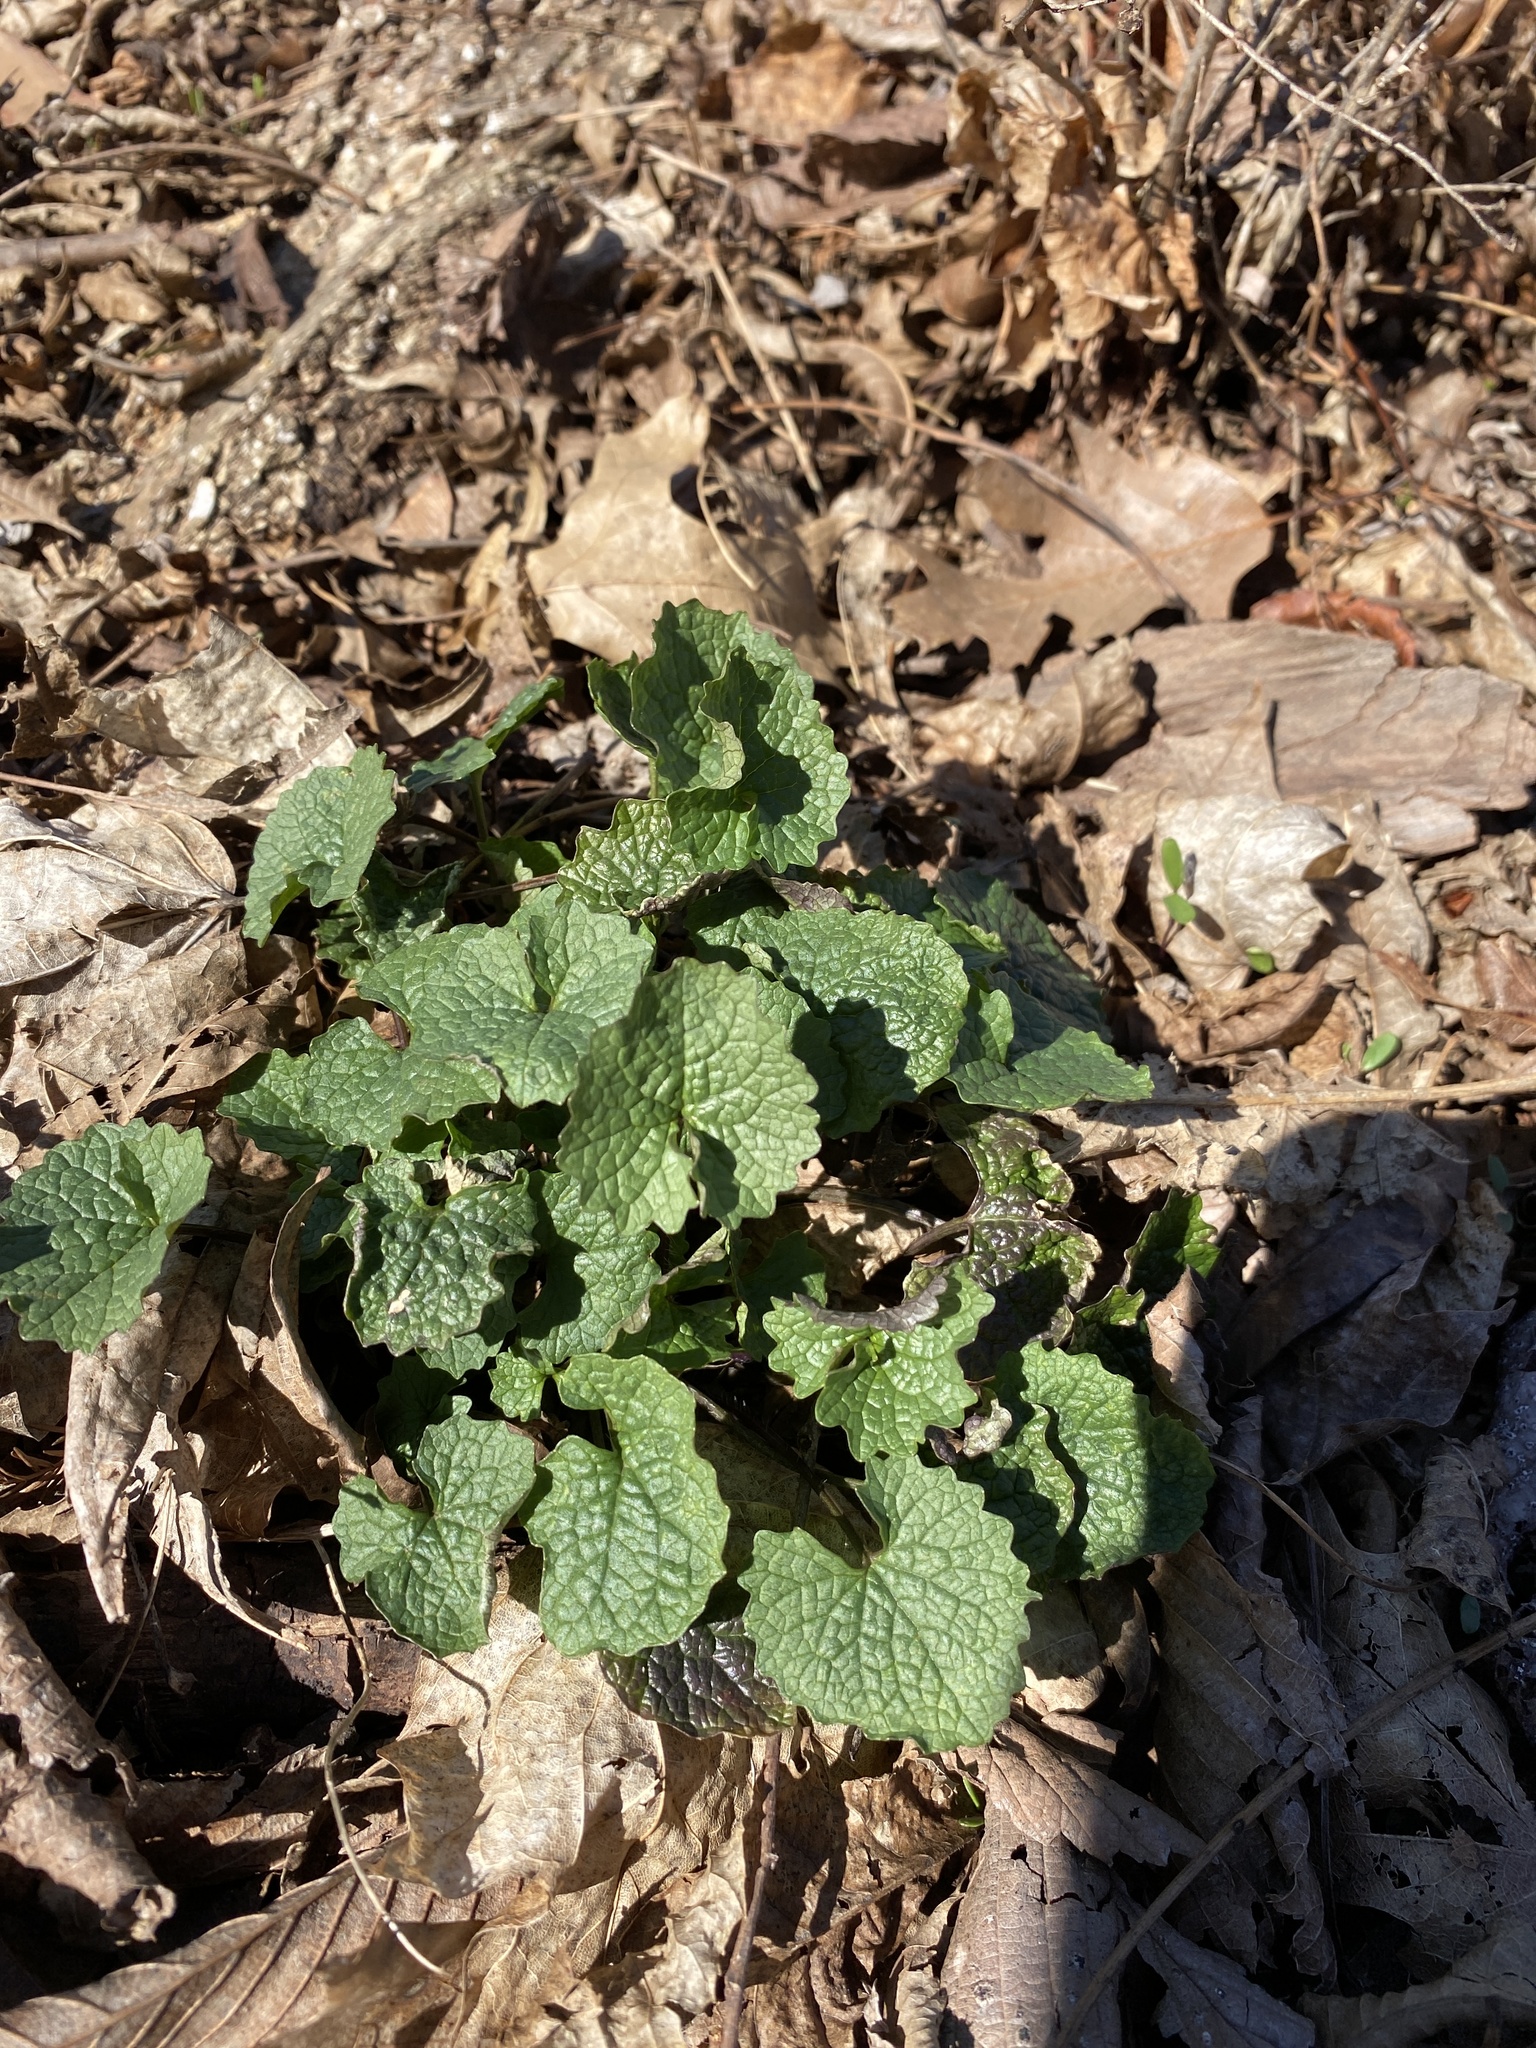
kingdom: Plantae
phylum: Tracheophyta
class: Magnoliopsida
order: Brassicales
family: Brassicaceae
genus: Alliaria
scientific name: Alliaria petiolata
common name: Garlic mustard
